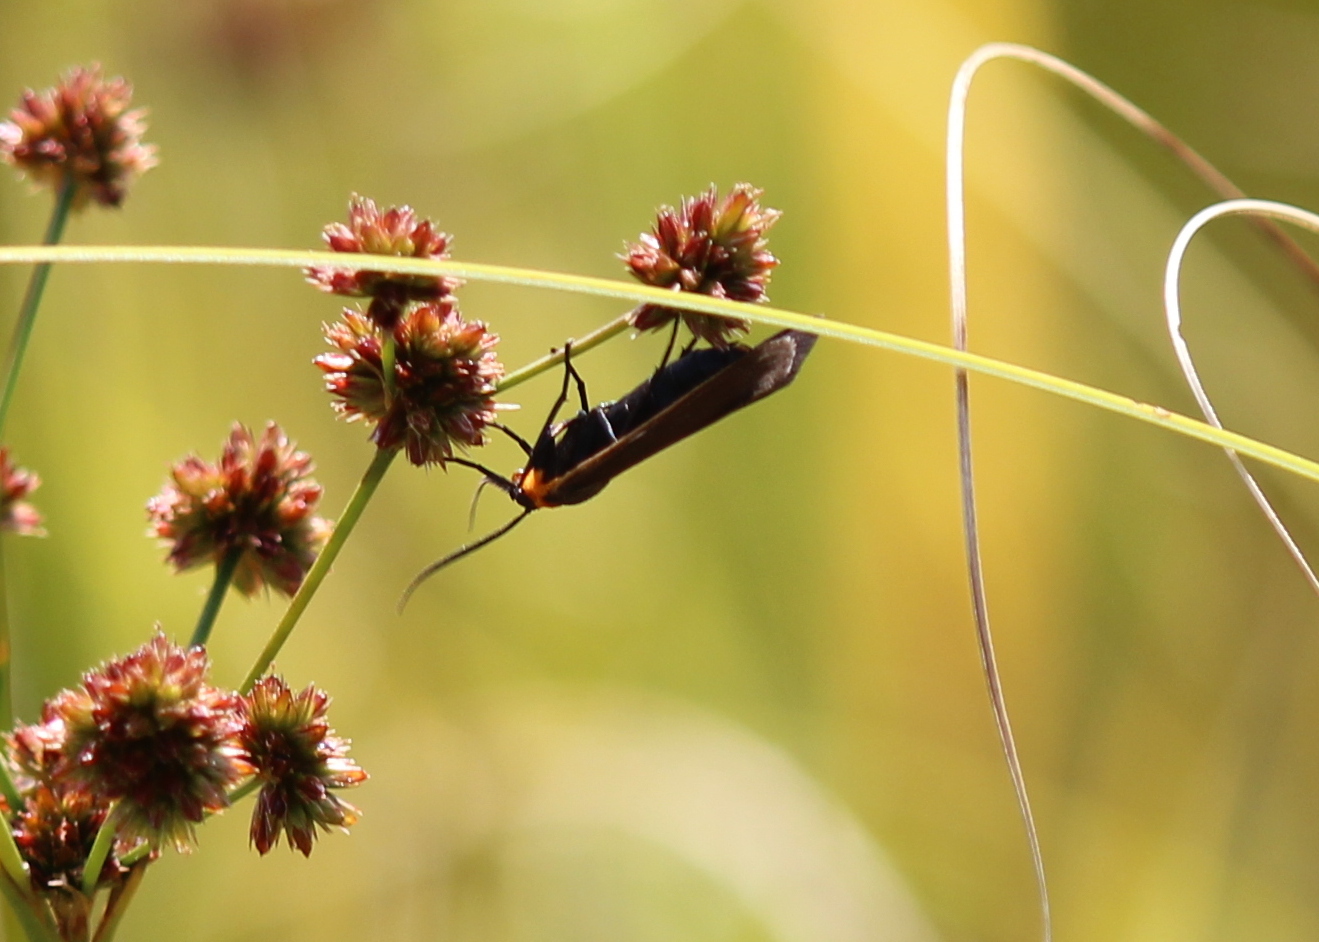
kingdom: Animalia
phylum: Arthropoda
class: Insecta
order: Lepidoptera
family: Erebidae
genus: Cisseps
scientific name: Cisseps fulvicollis
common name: Yellow-collared scape moth
